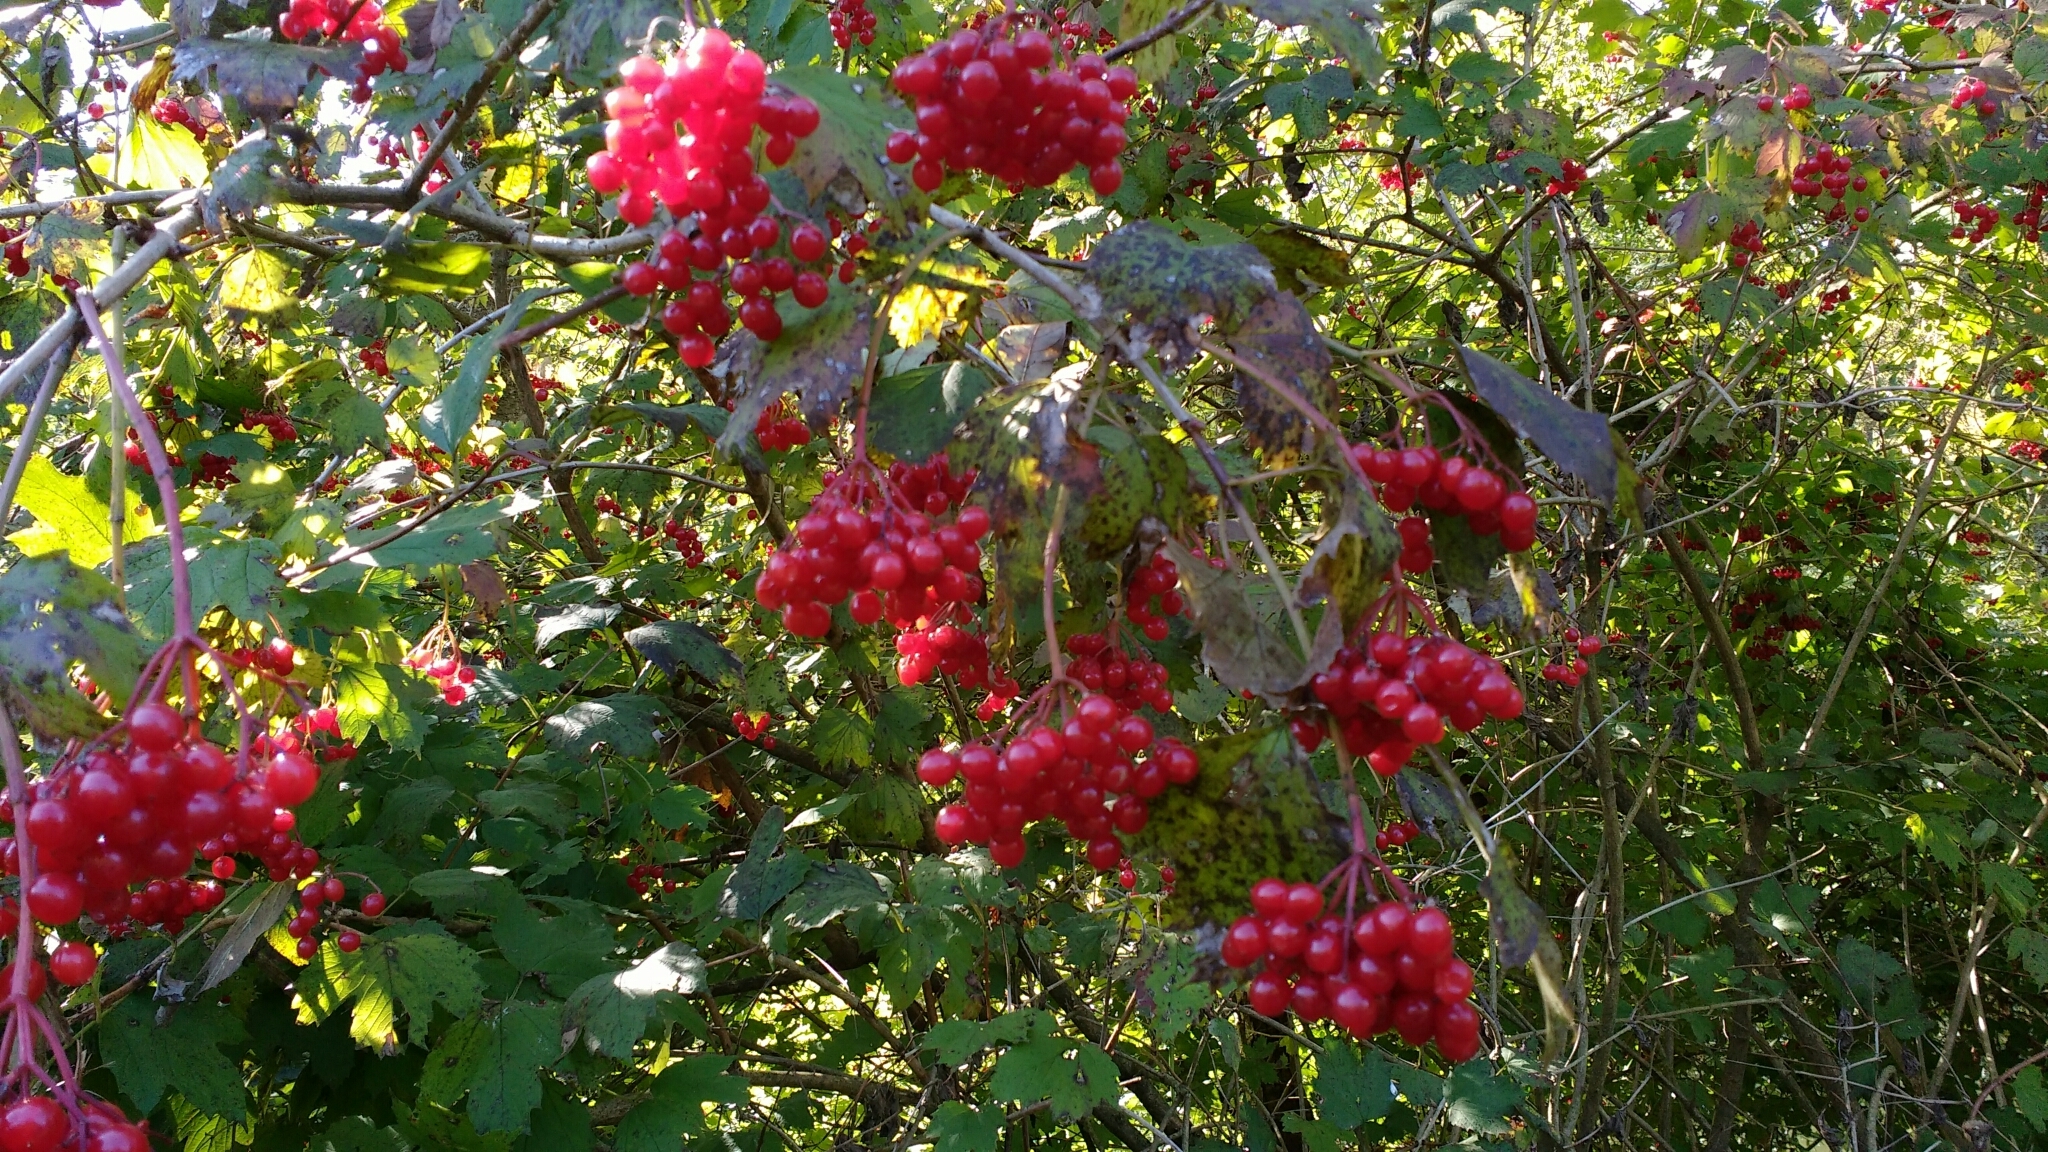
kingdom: Plantae
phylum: Tracheophyta
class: Magnoliopsida
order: Dipsacales
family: Viburnaceae
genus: Viburnum
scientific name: Viburnum opulus
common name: Guelder-rose
